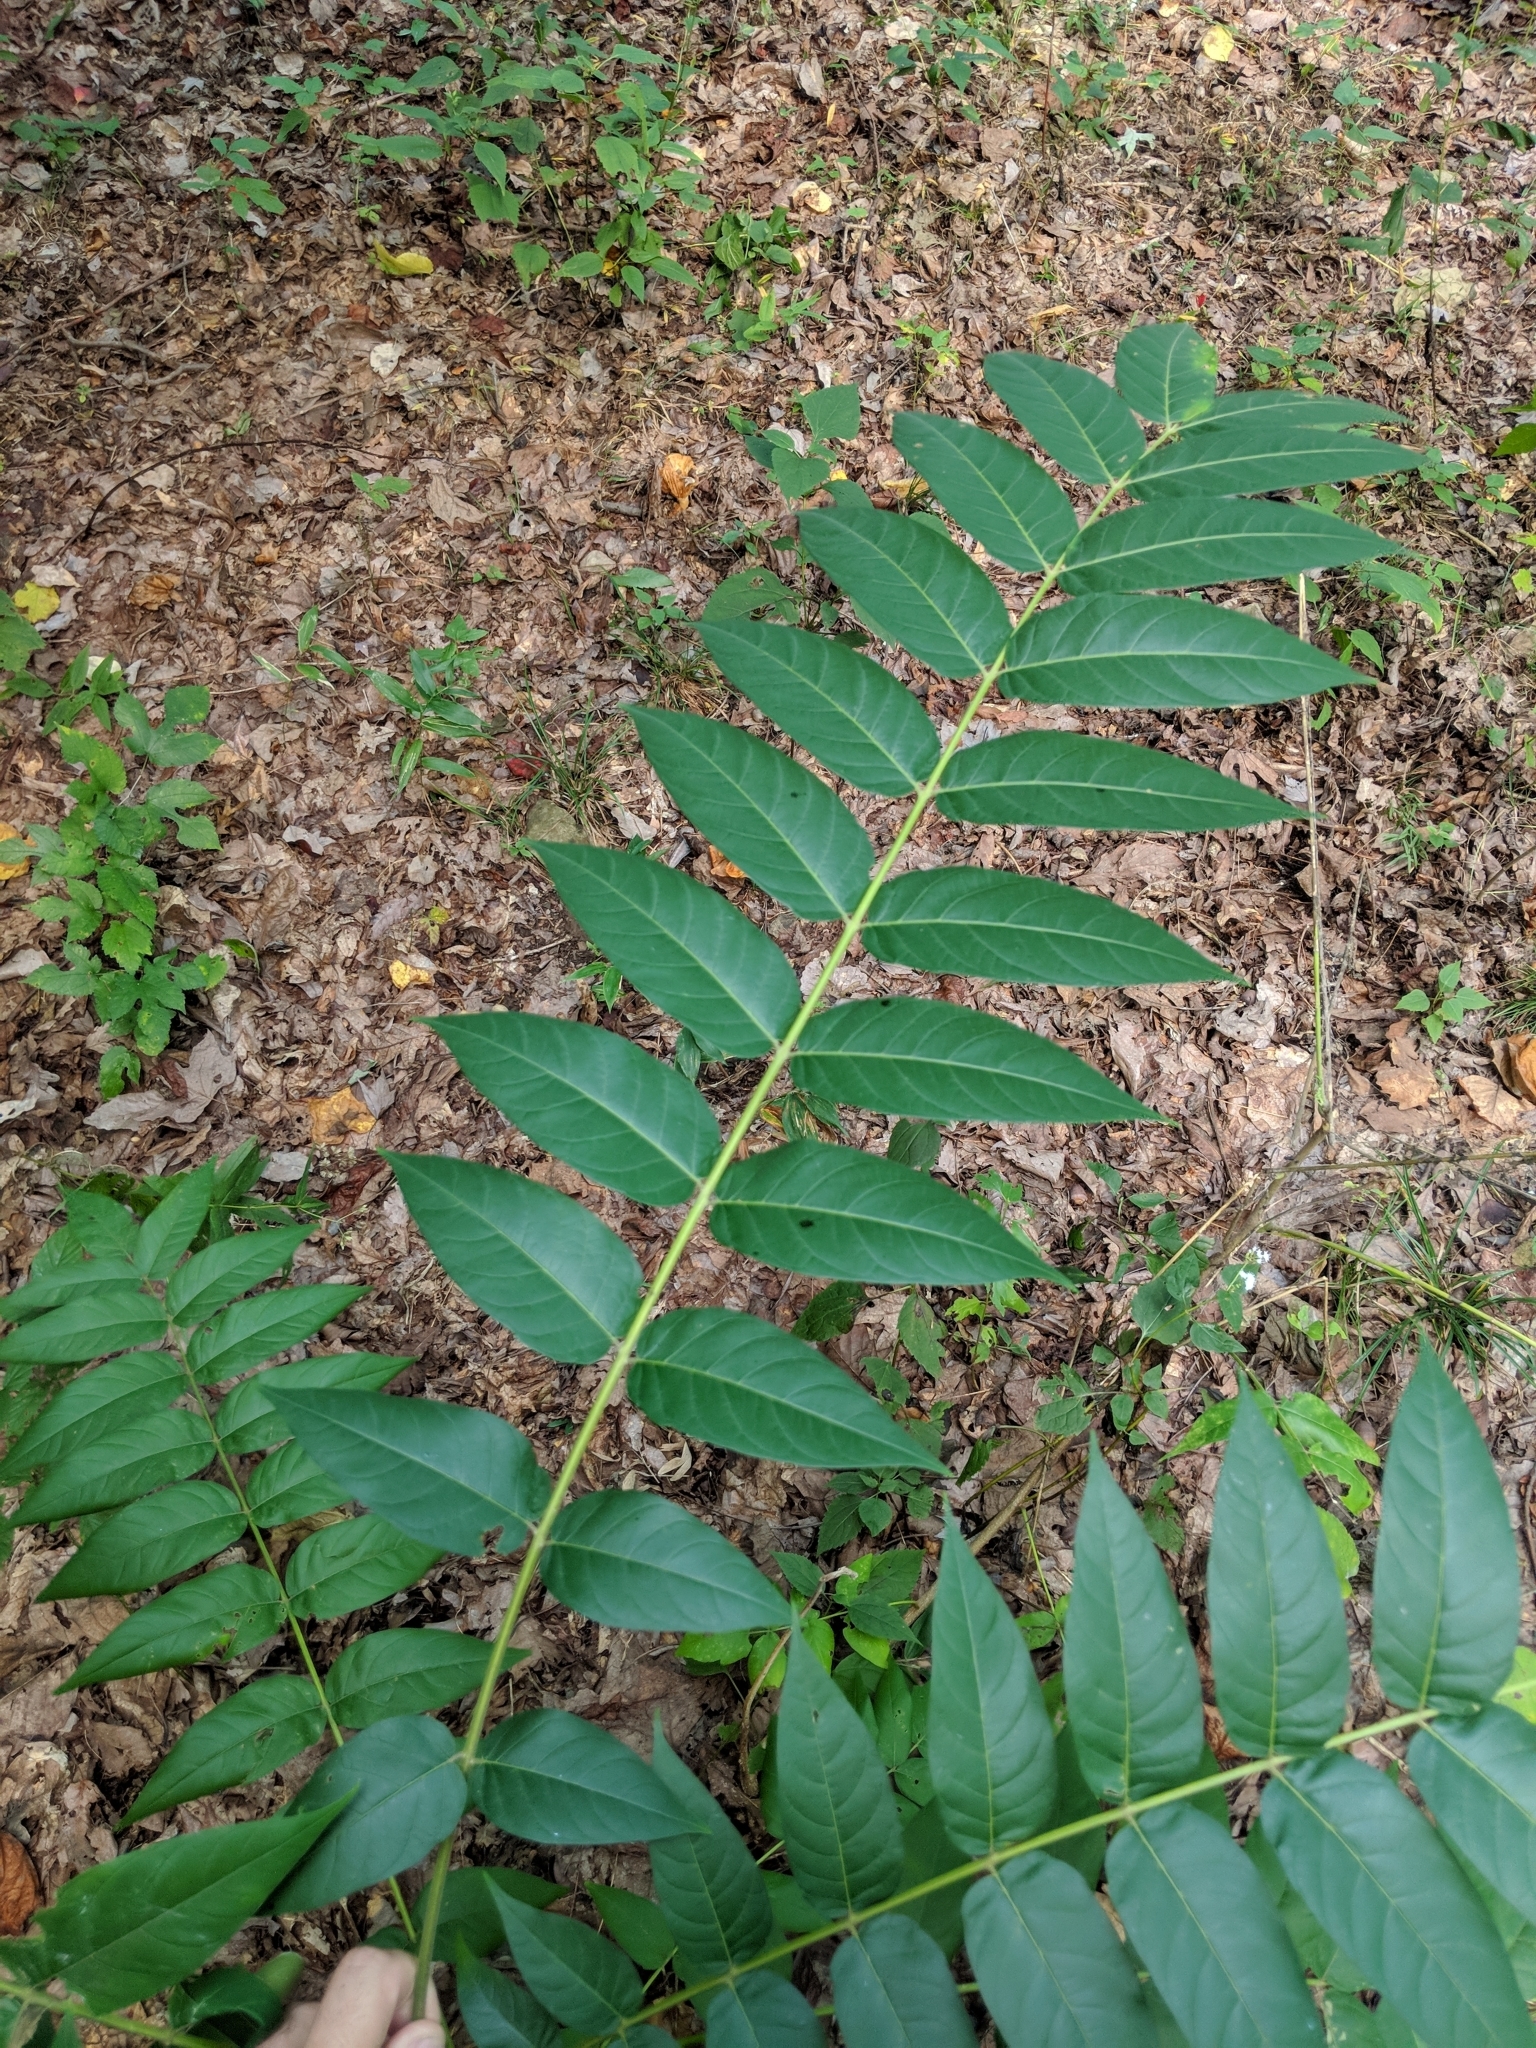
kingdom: Plantae
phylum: Tracheophyta
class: Magnoliopsida
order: Sapindales
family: Simaroubaceae
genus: Ailanthus
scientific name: Ailanthus altissima
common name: Tree-of-heaven
